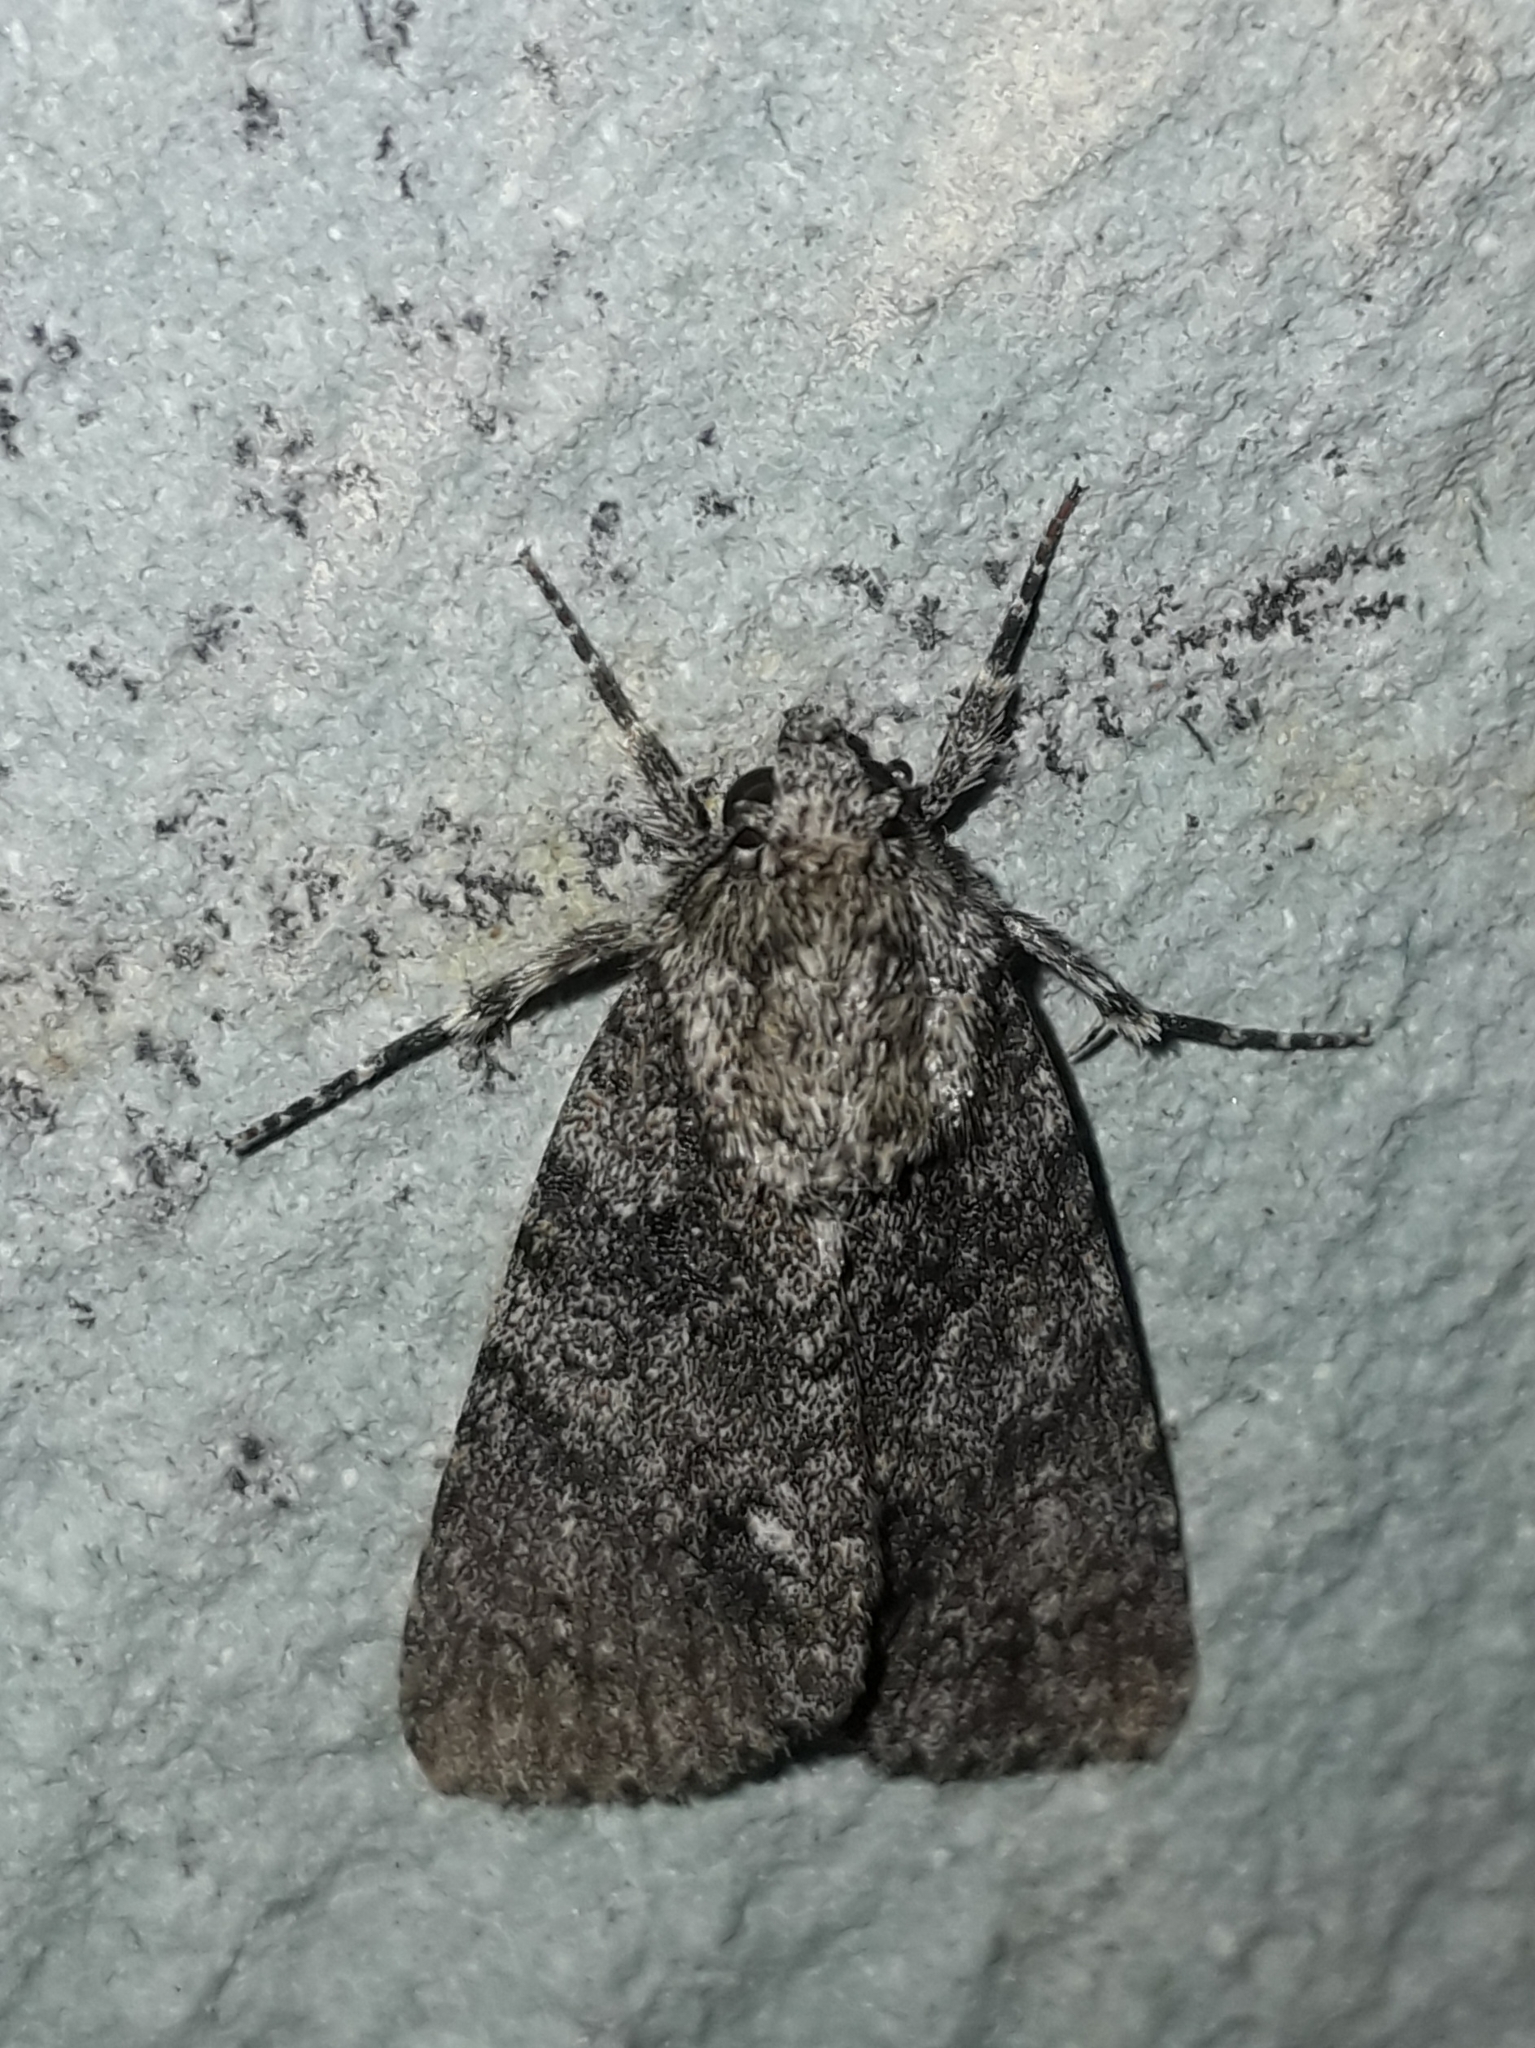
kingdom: Animalia
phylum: Arthropoda
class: Insecta
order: Lepidoptera
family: Noctuidae
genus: Acronicta
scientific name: Acronicta rumicis
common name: Knot grass
